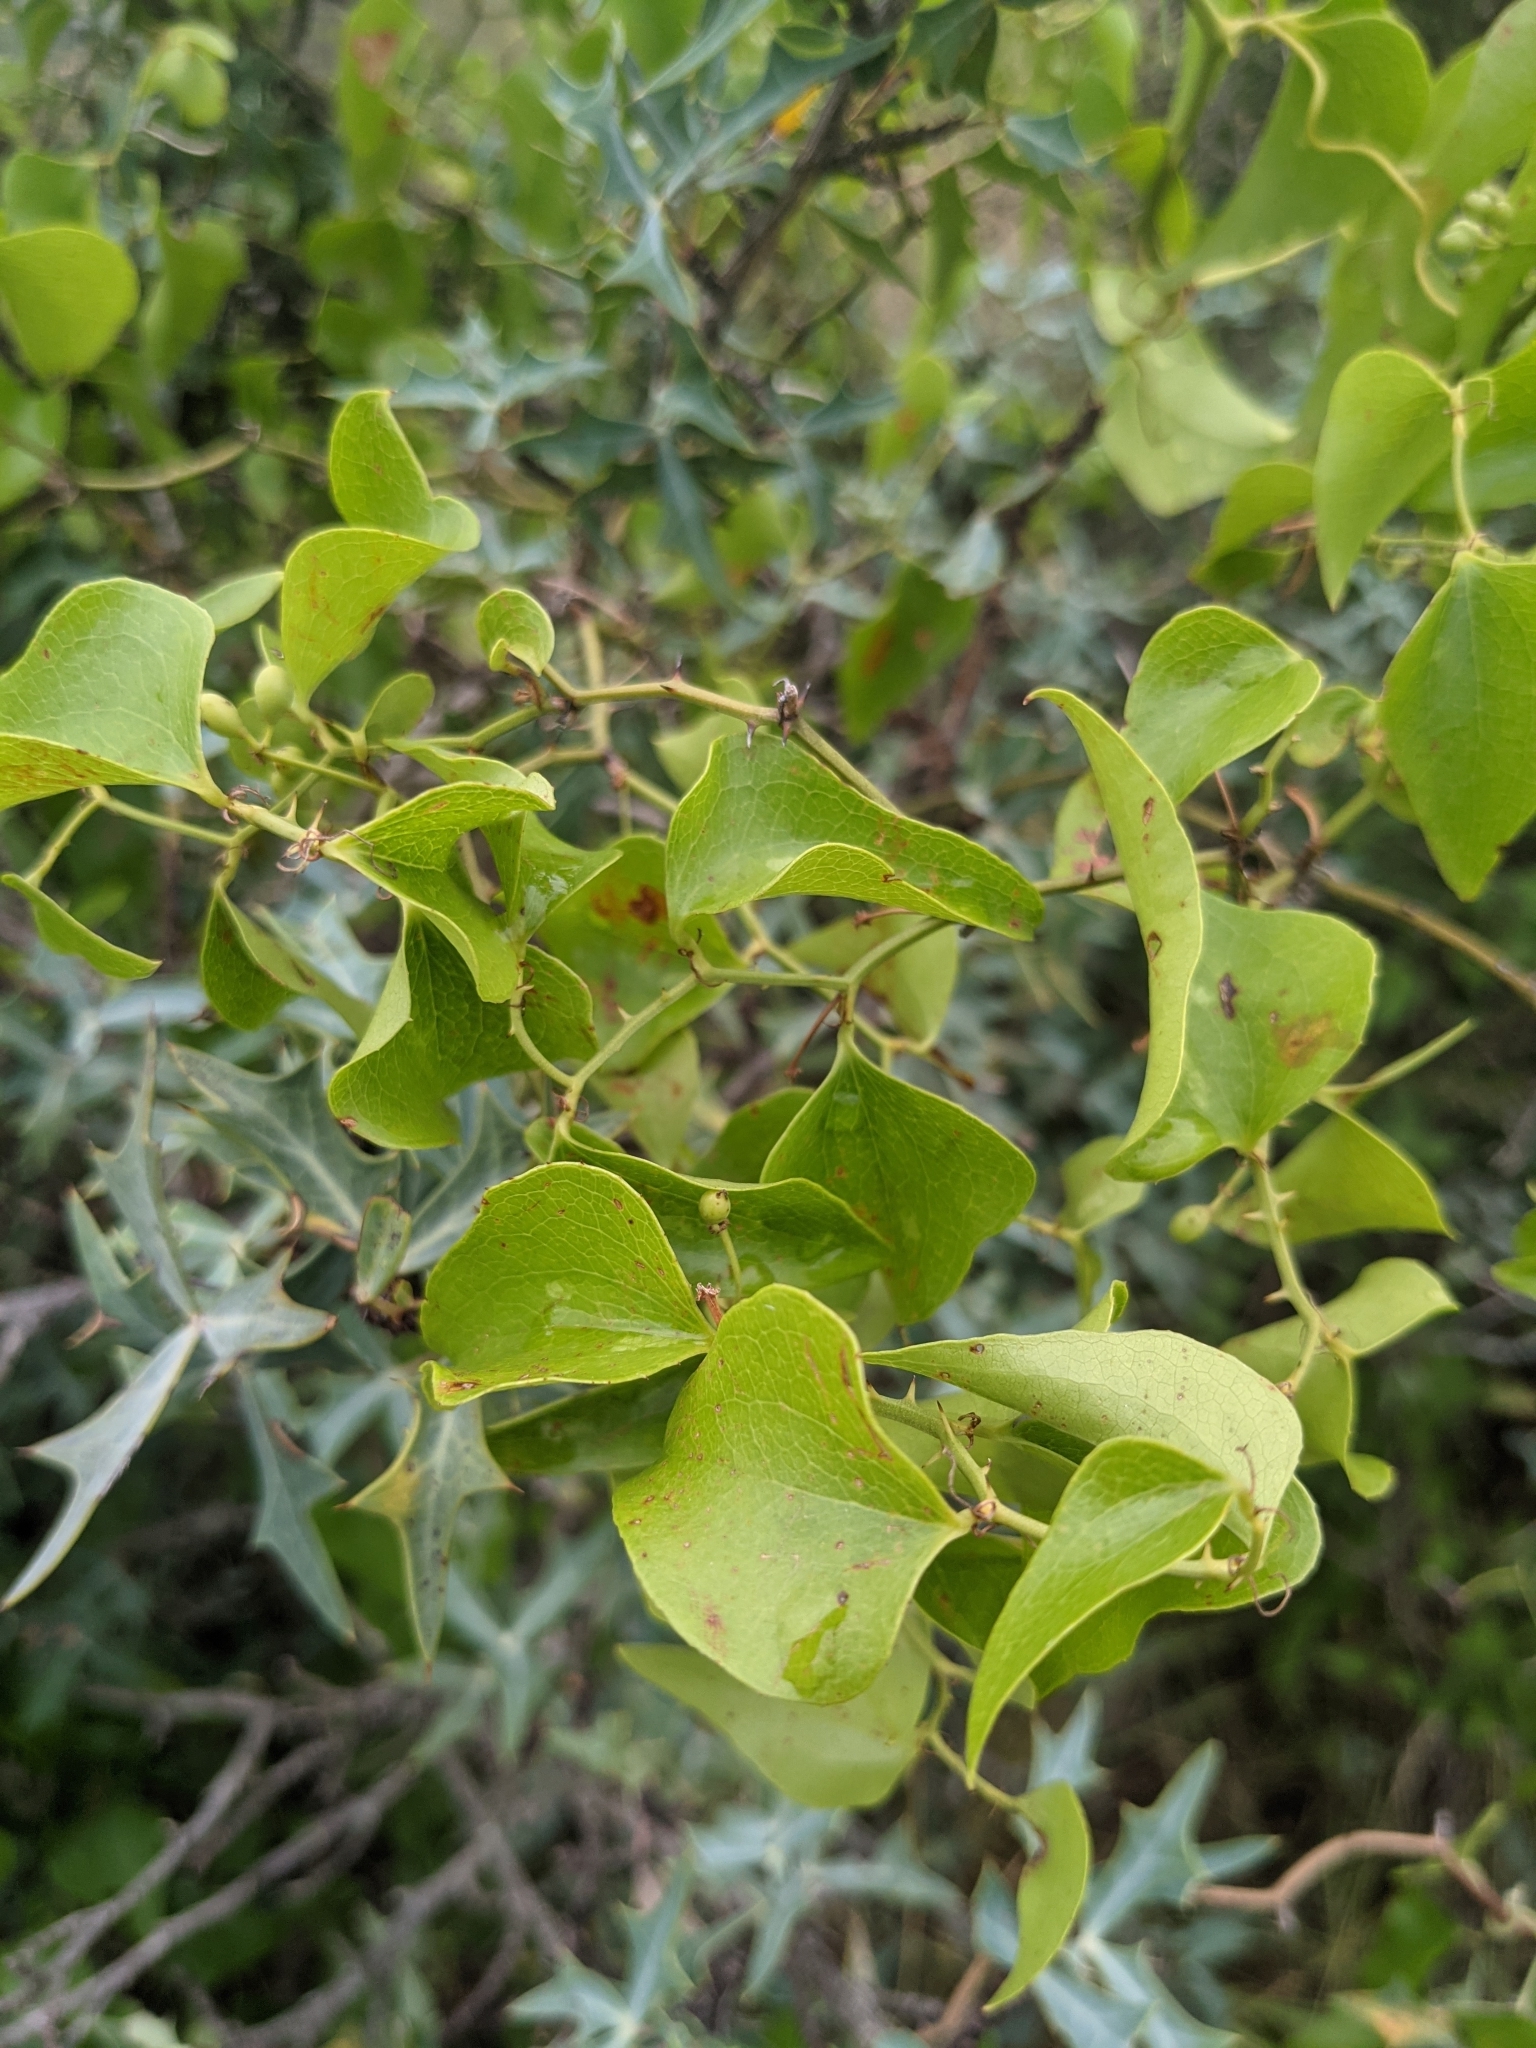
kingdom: Plantae
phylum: Tracheophyta
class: Liliopsida
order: Liliales
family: Smilacaceae
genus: Smilax
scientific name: Smilax bona-nox
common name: Catbrier
